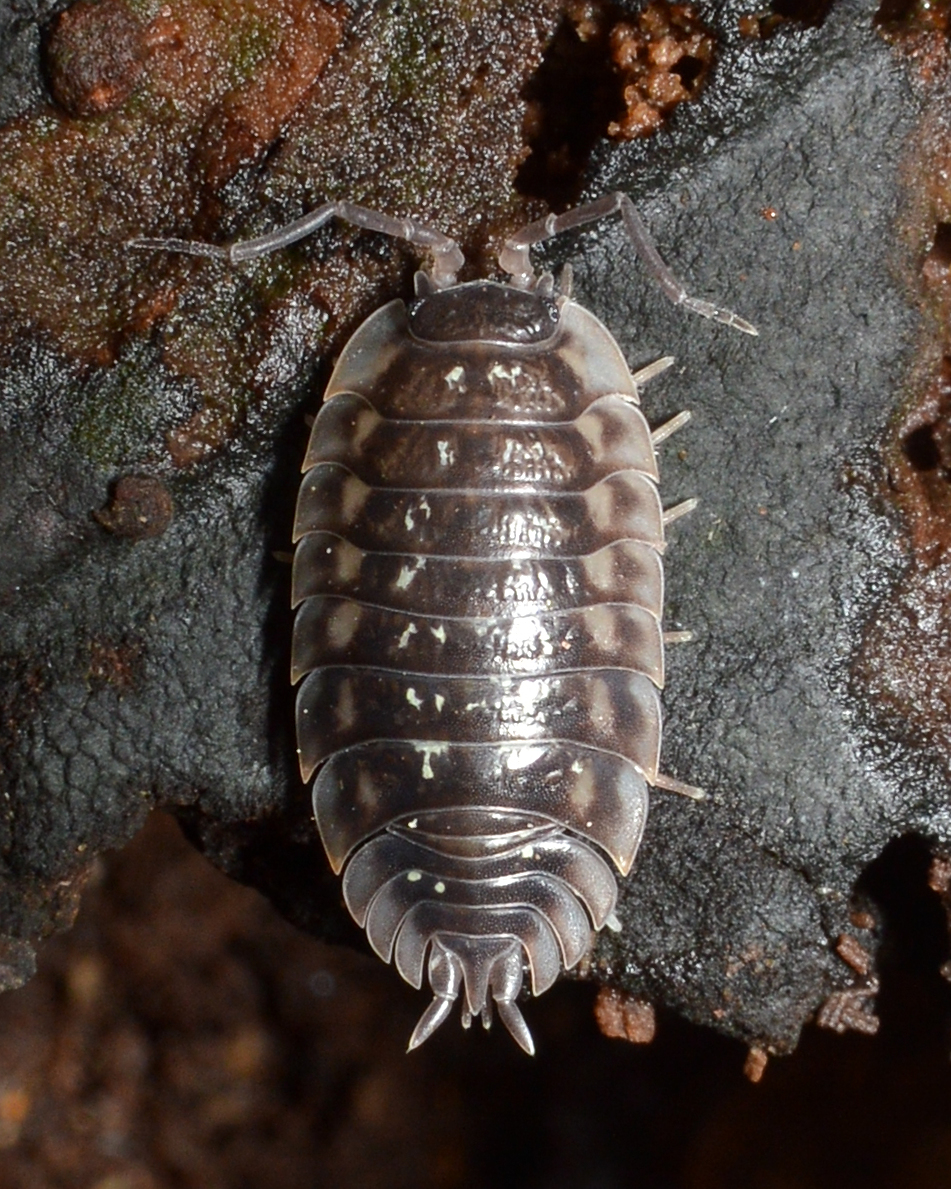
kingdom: Animalia
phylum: Arthropoda
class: Malacostraca
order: Isopoda
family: Oniscidae
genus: Oniscus
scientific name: Oniscus asellus
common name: Common shiny woodlouse
